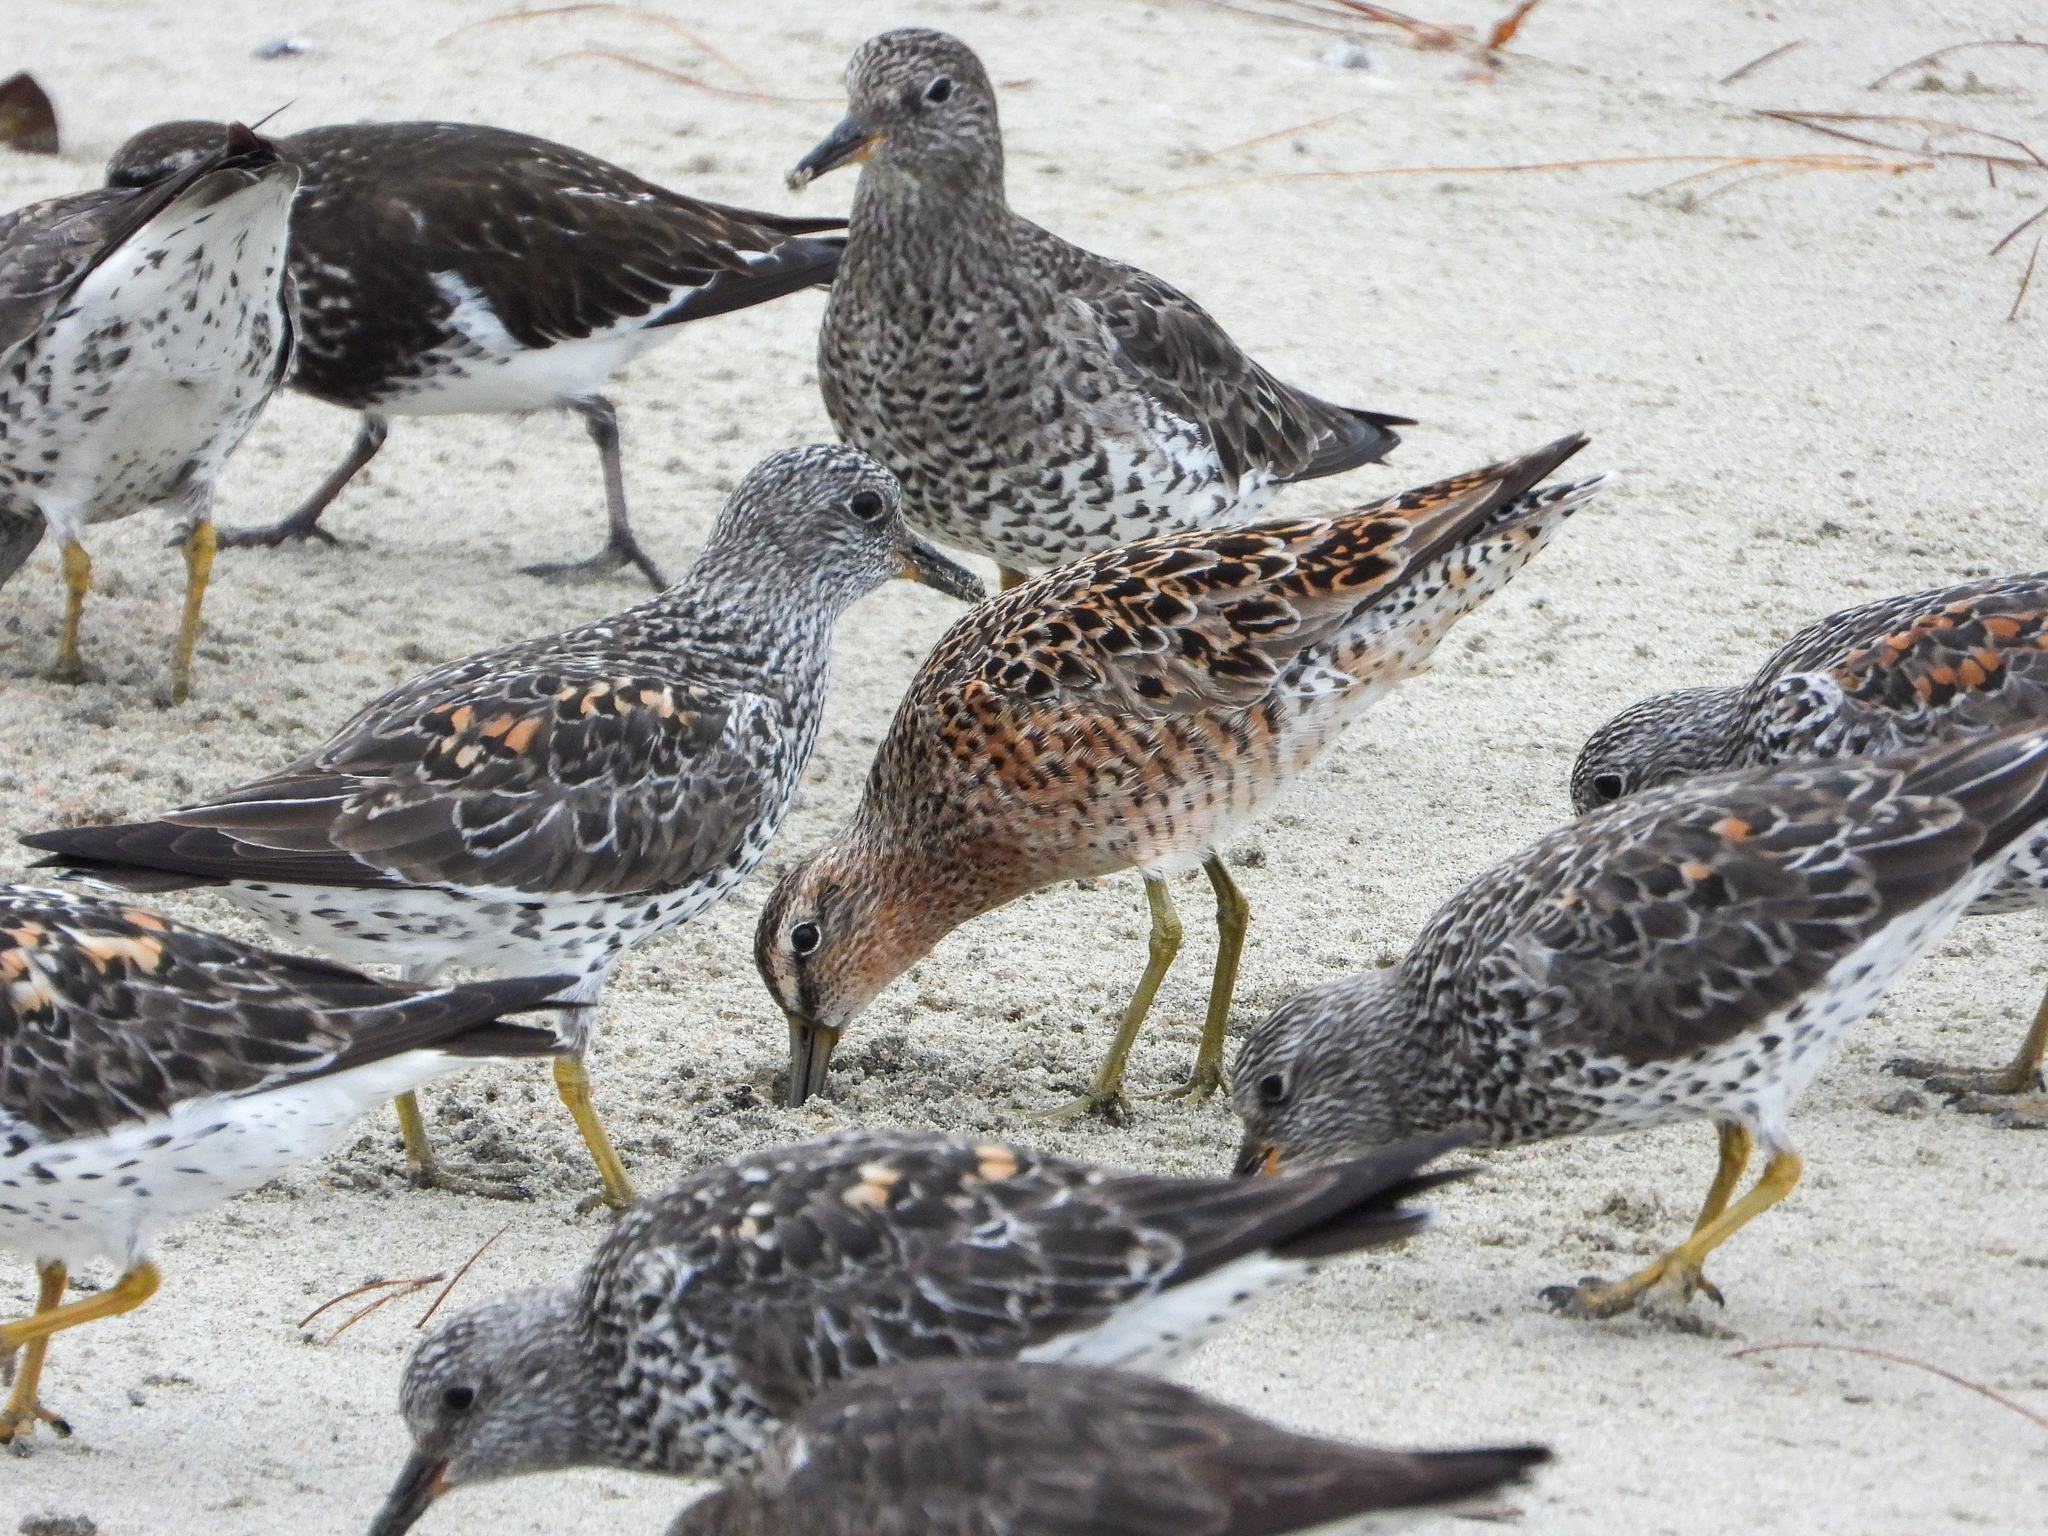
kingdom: Animalia
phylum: Chordata
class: Aves
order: Charadriiformes
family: Scolopacidae
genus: Limnodromus
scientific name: Limnodromus griseus
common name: Short-billed dowitcher
